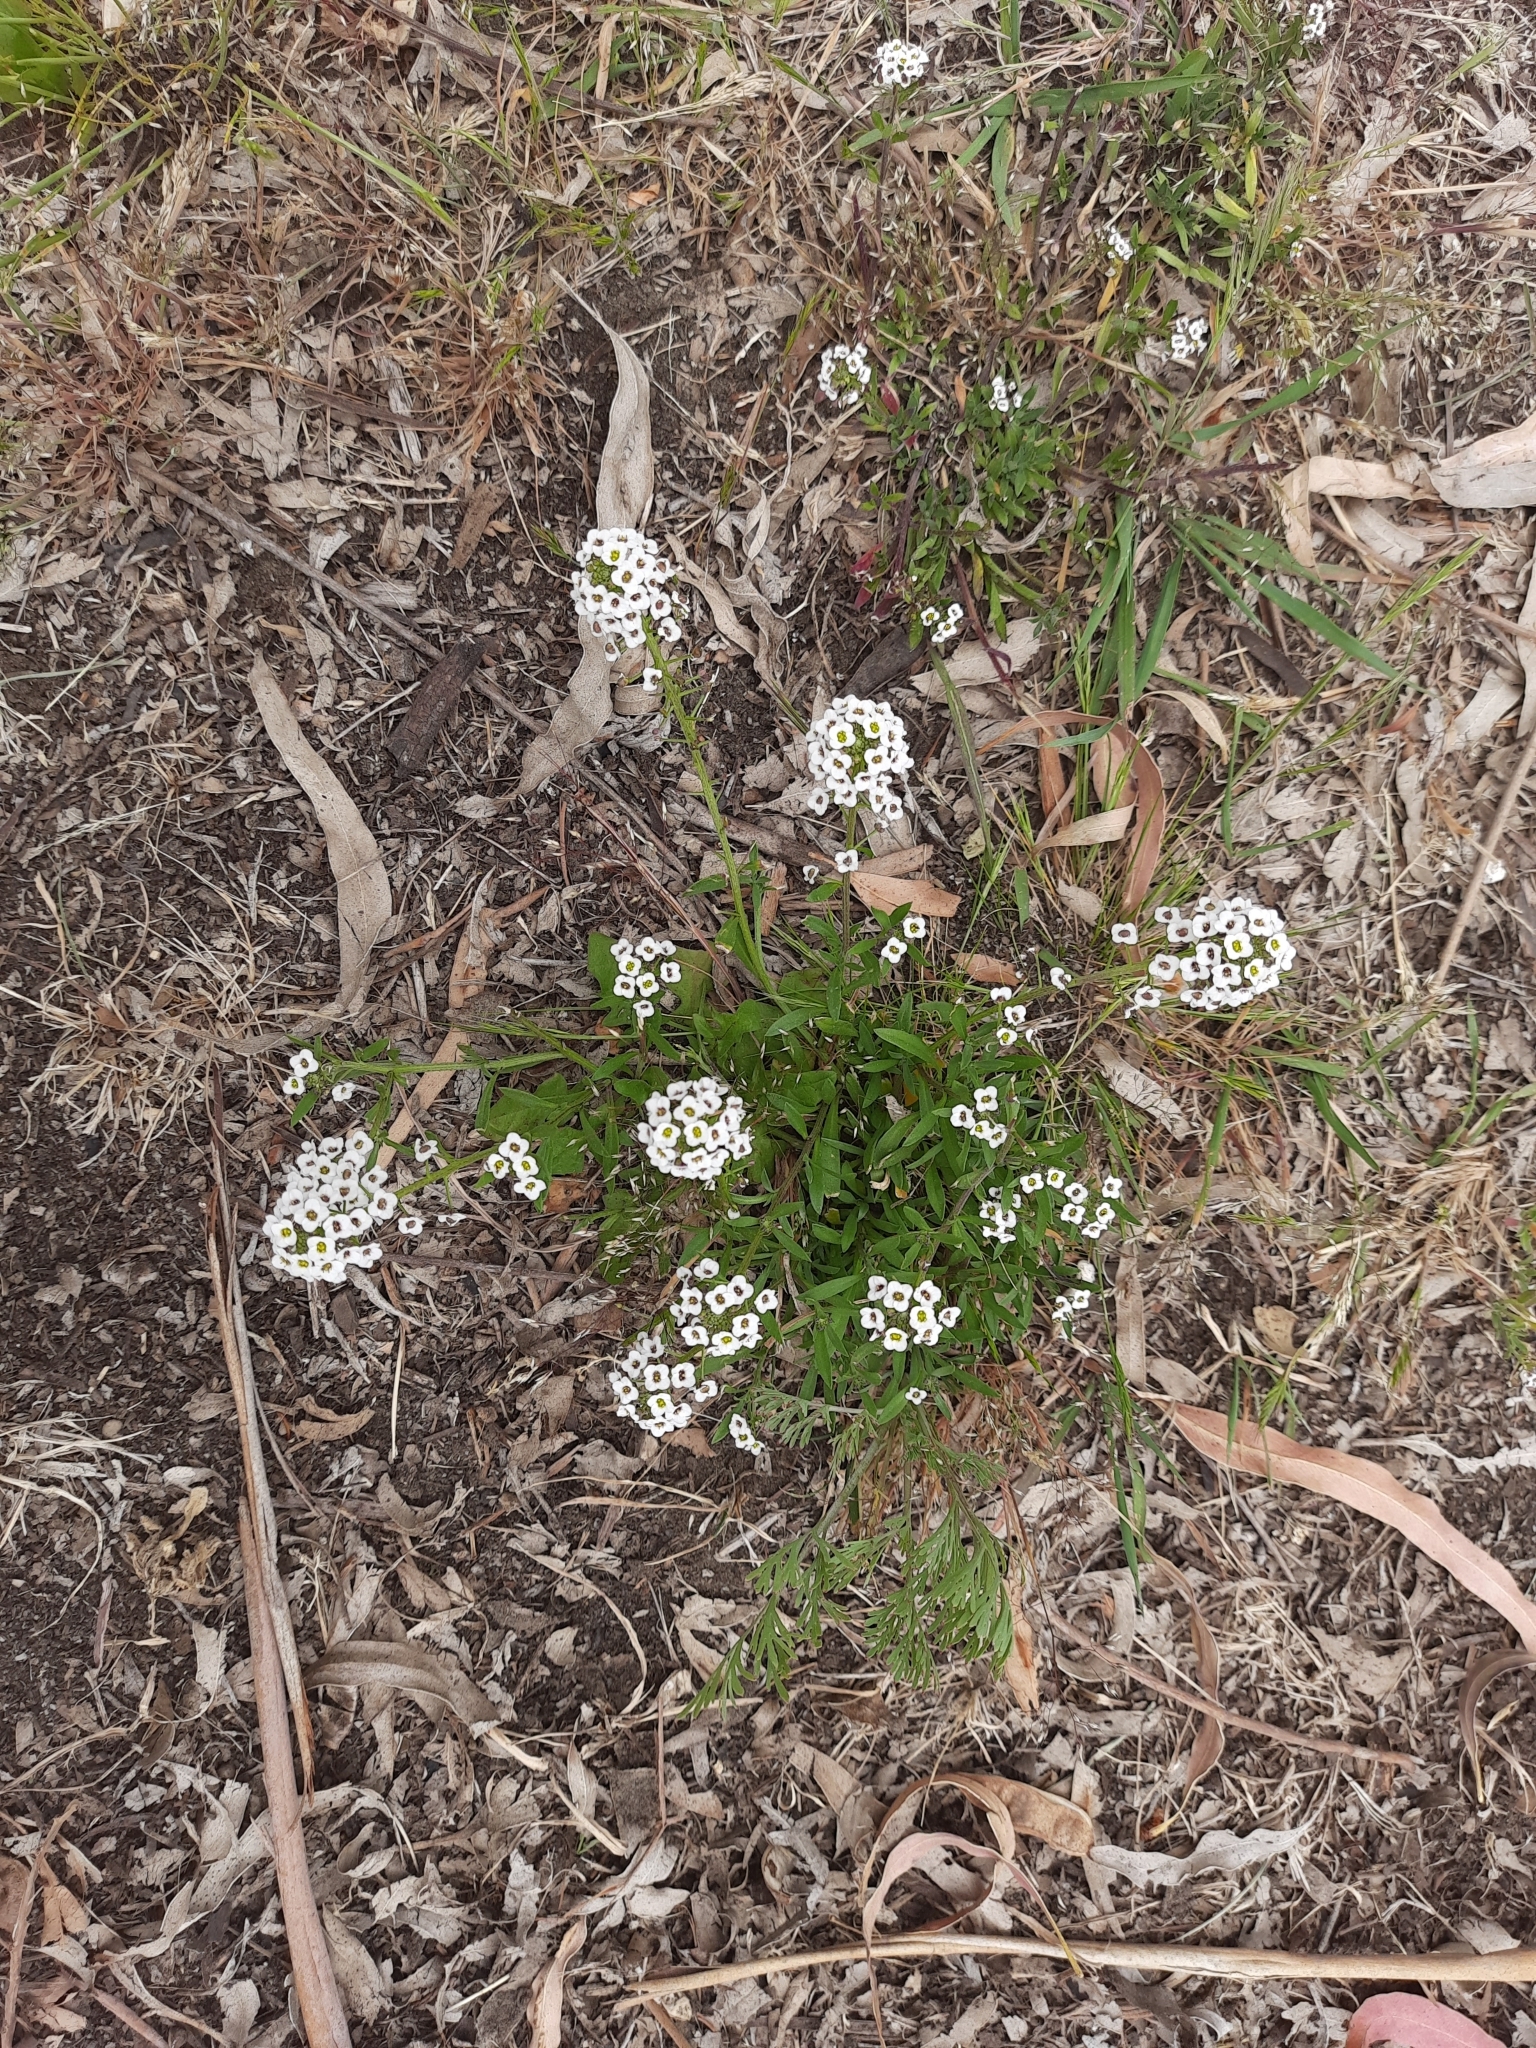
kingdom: Plantae
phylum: Tracheophyta
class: Magnoliopsida
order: Brassicales
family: Brassicaceae
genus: Lobularia
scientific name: Lobularia maritima
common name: Sweet alison
